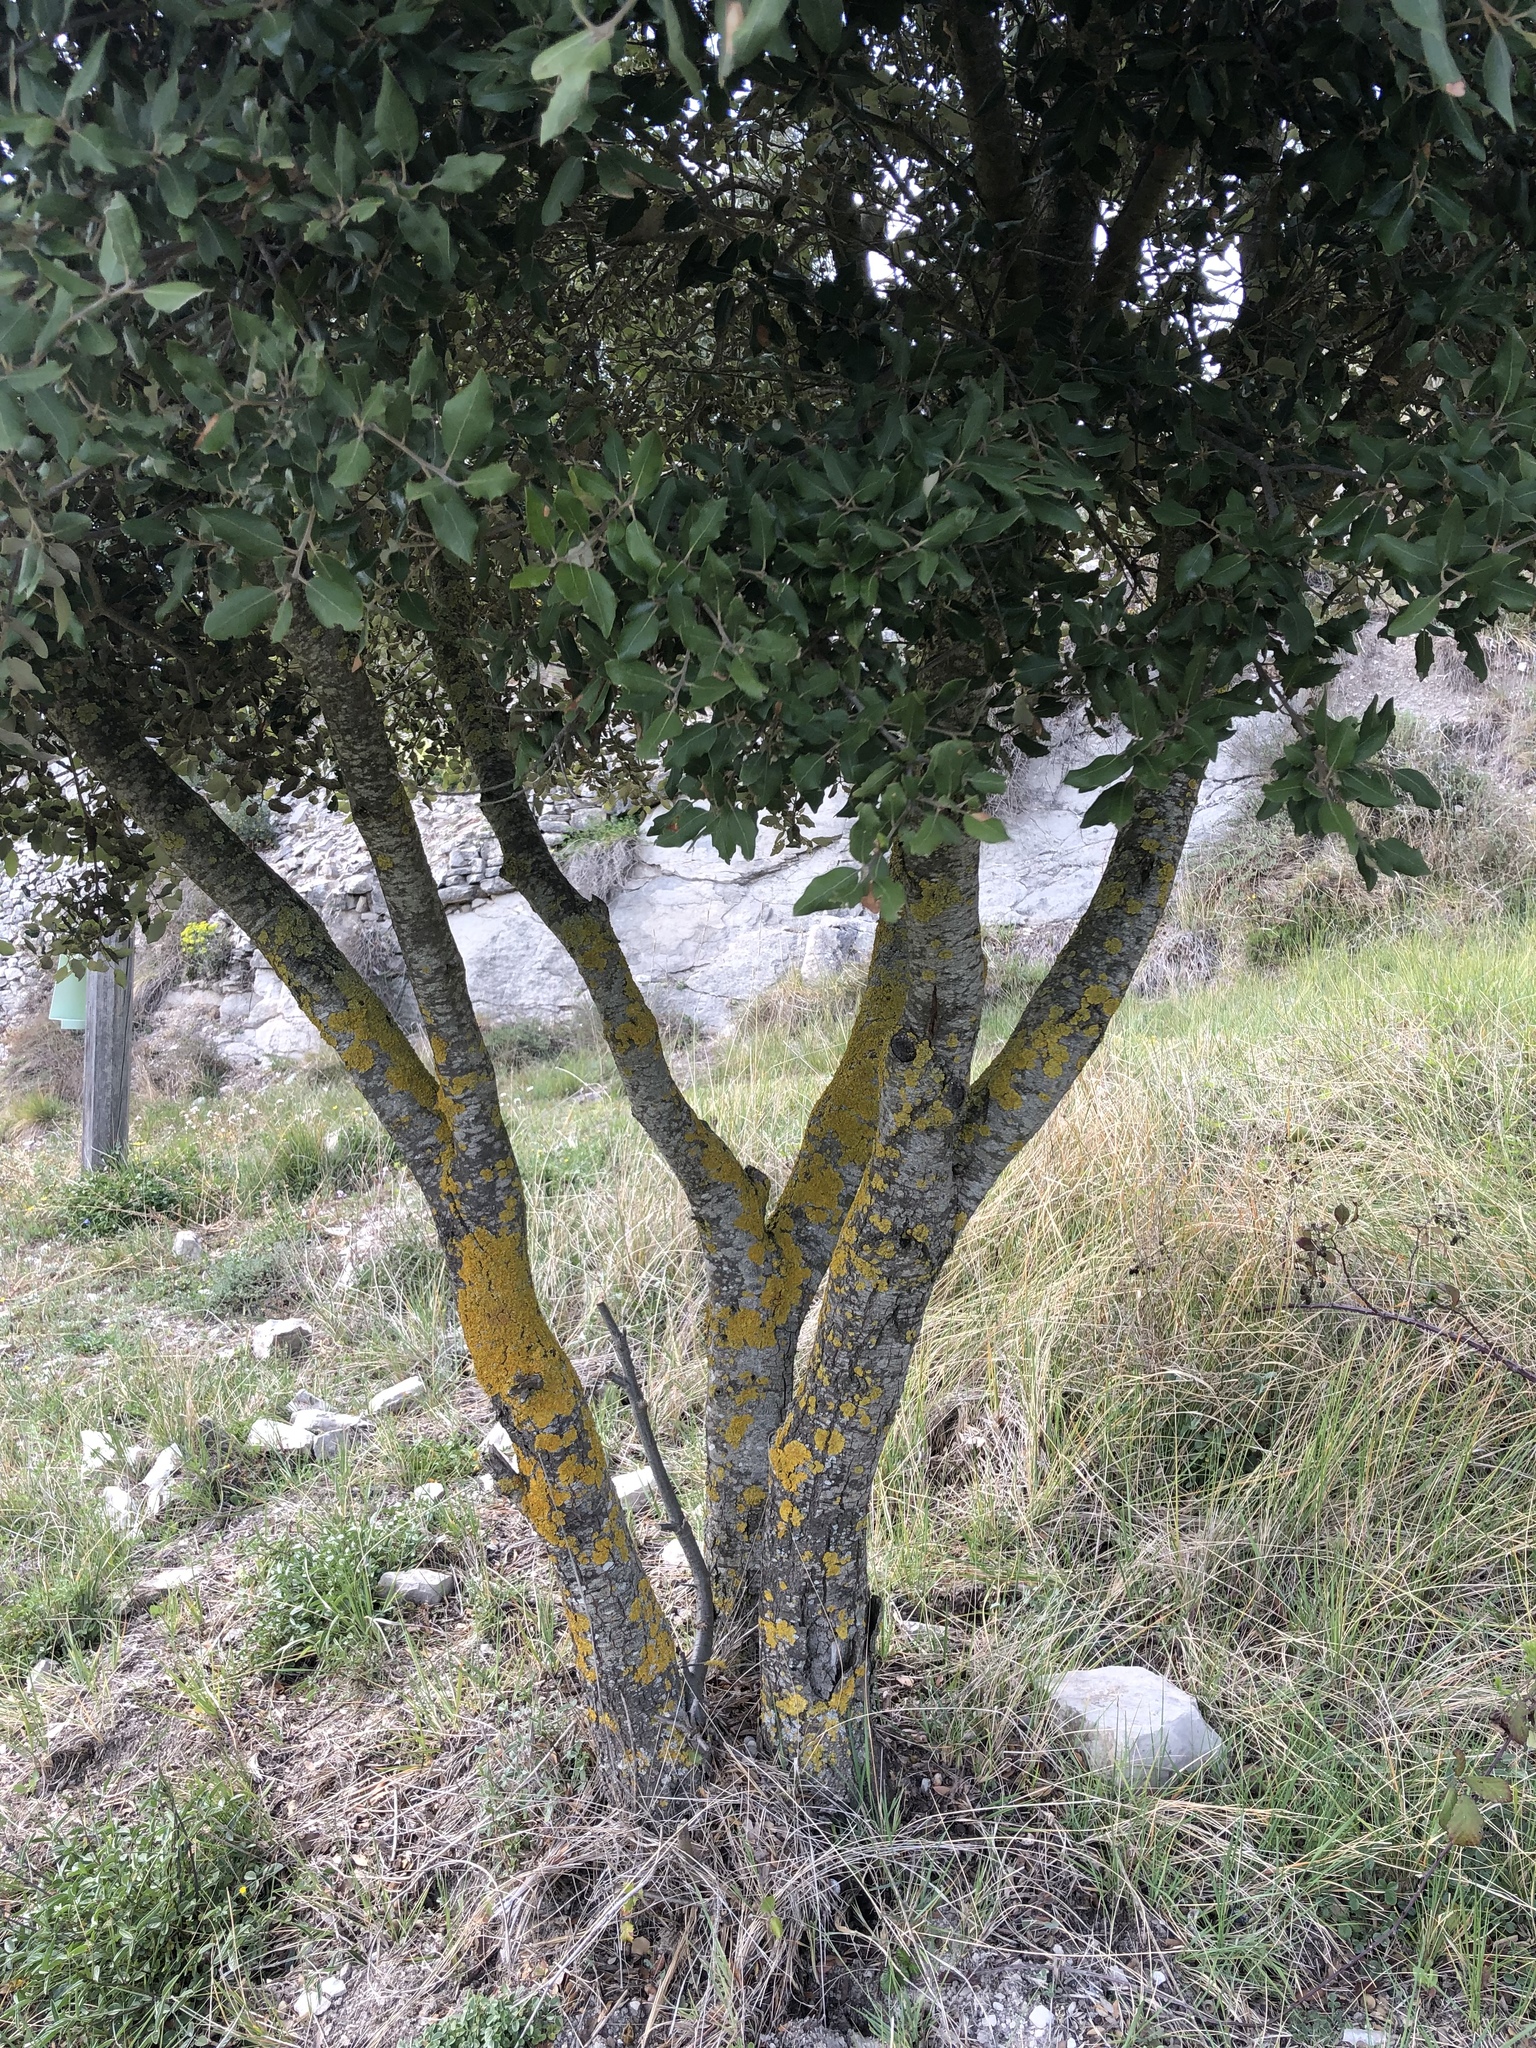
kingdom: Plantae
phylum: Tracheophyta
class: Magnoliopsida
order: Fagales
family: Fagaceae
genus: Quercus
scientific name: Quercus ilex
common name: Evergreen oak
